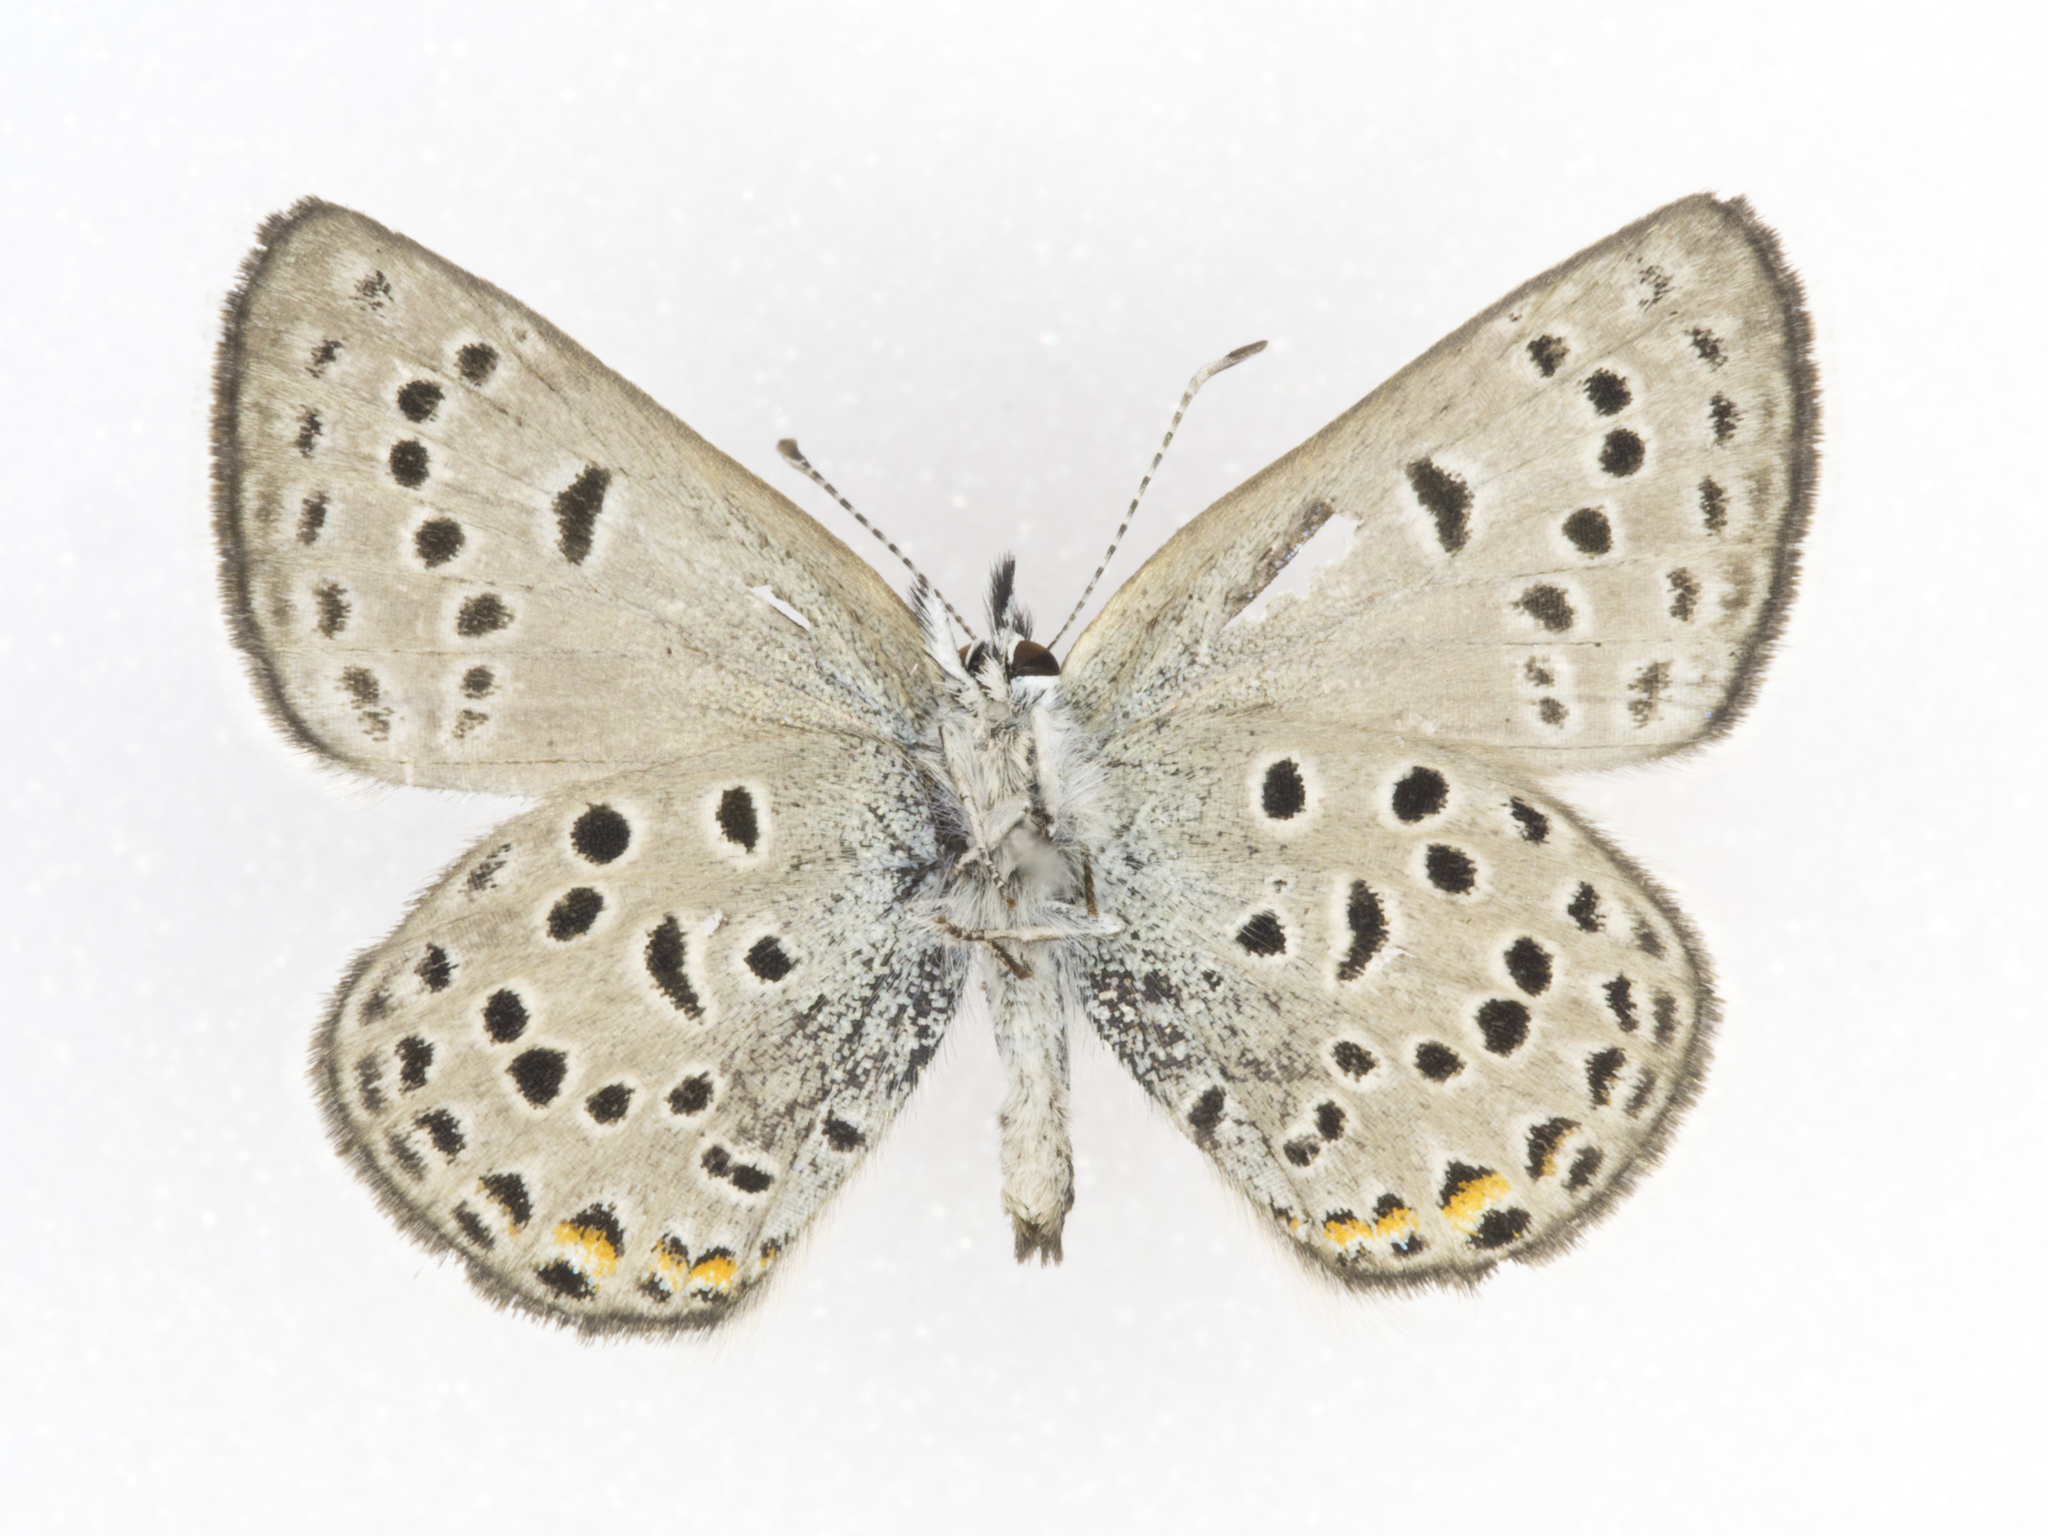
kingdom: Animalia
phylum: Arthropoda
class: Insecta
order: Lepidoptera
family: Lycaenidae
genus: Icaricia
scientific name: Icaricia saepiolus
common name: Greenish blue
